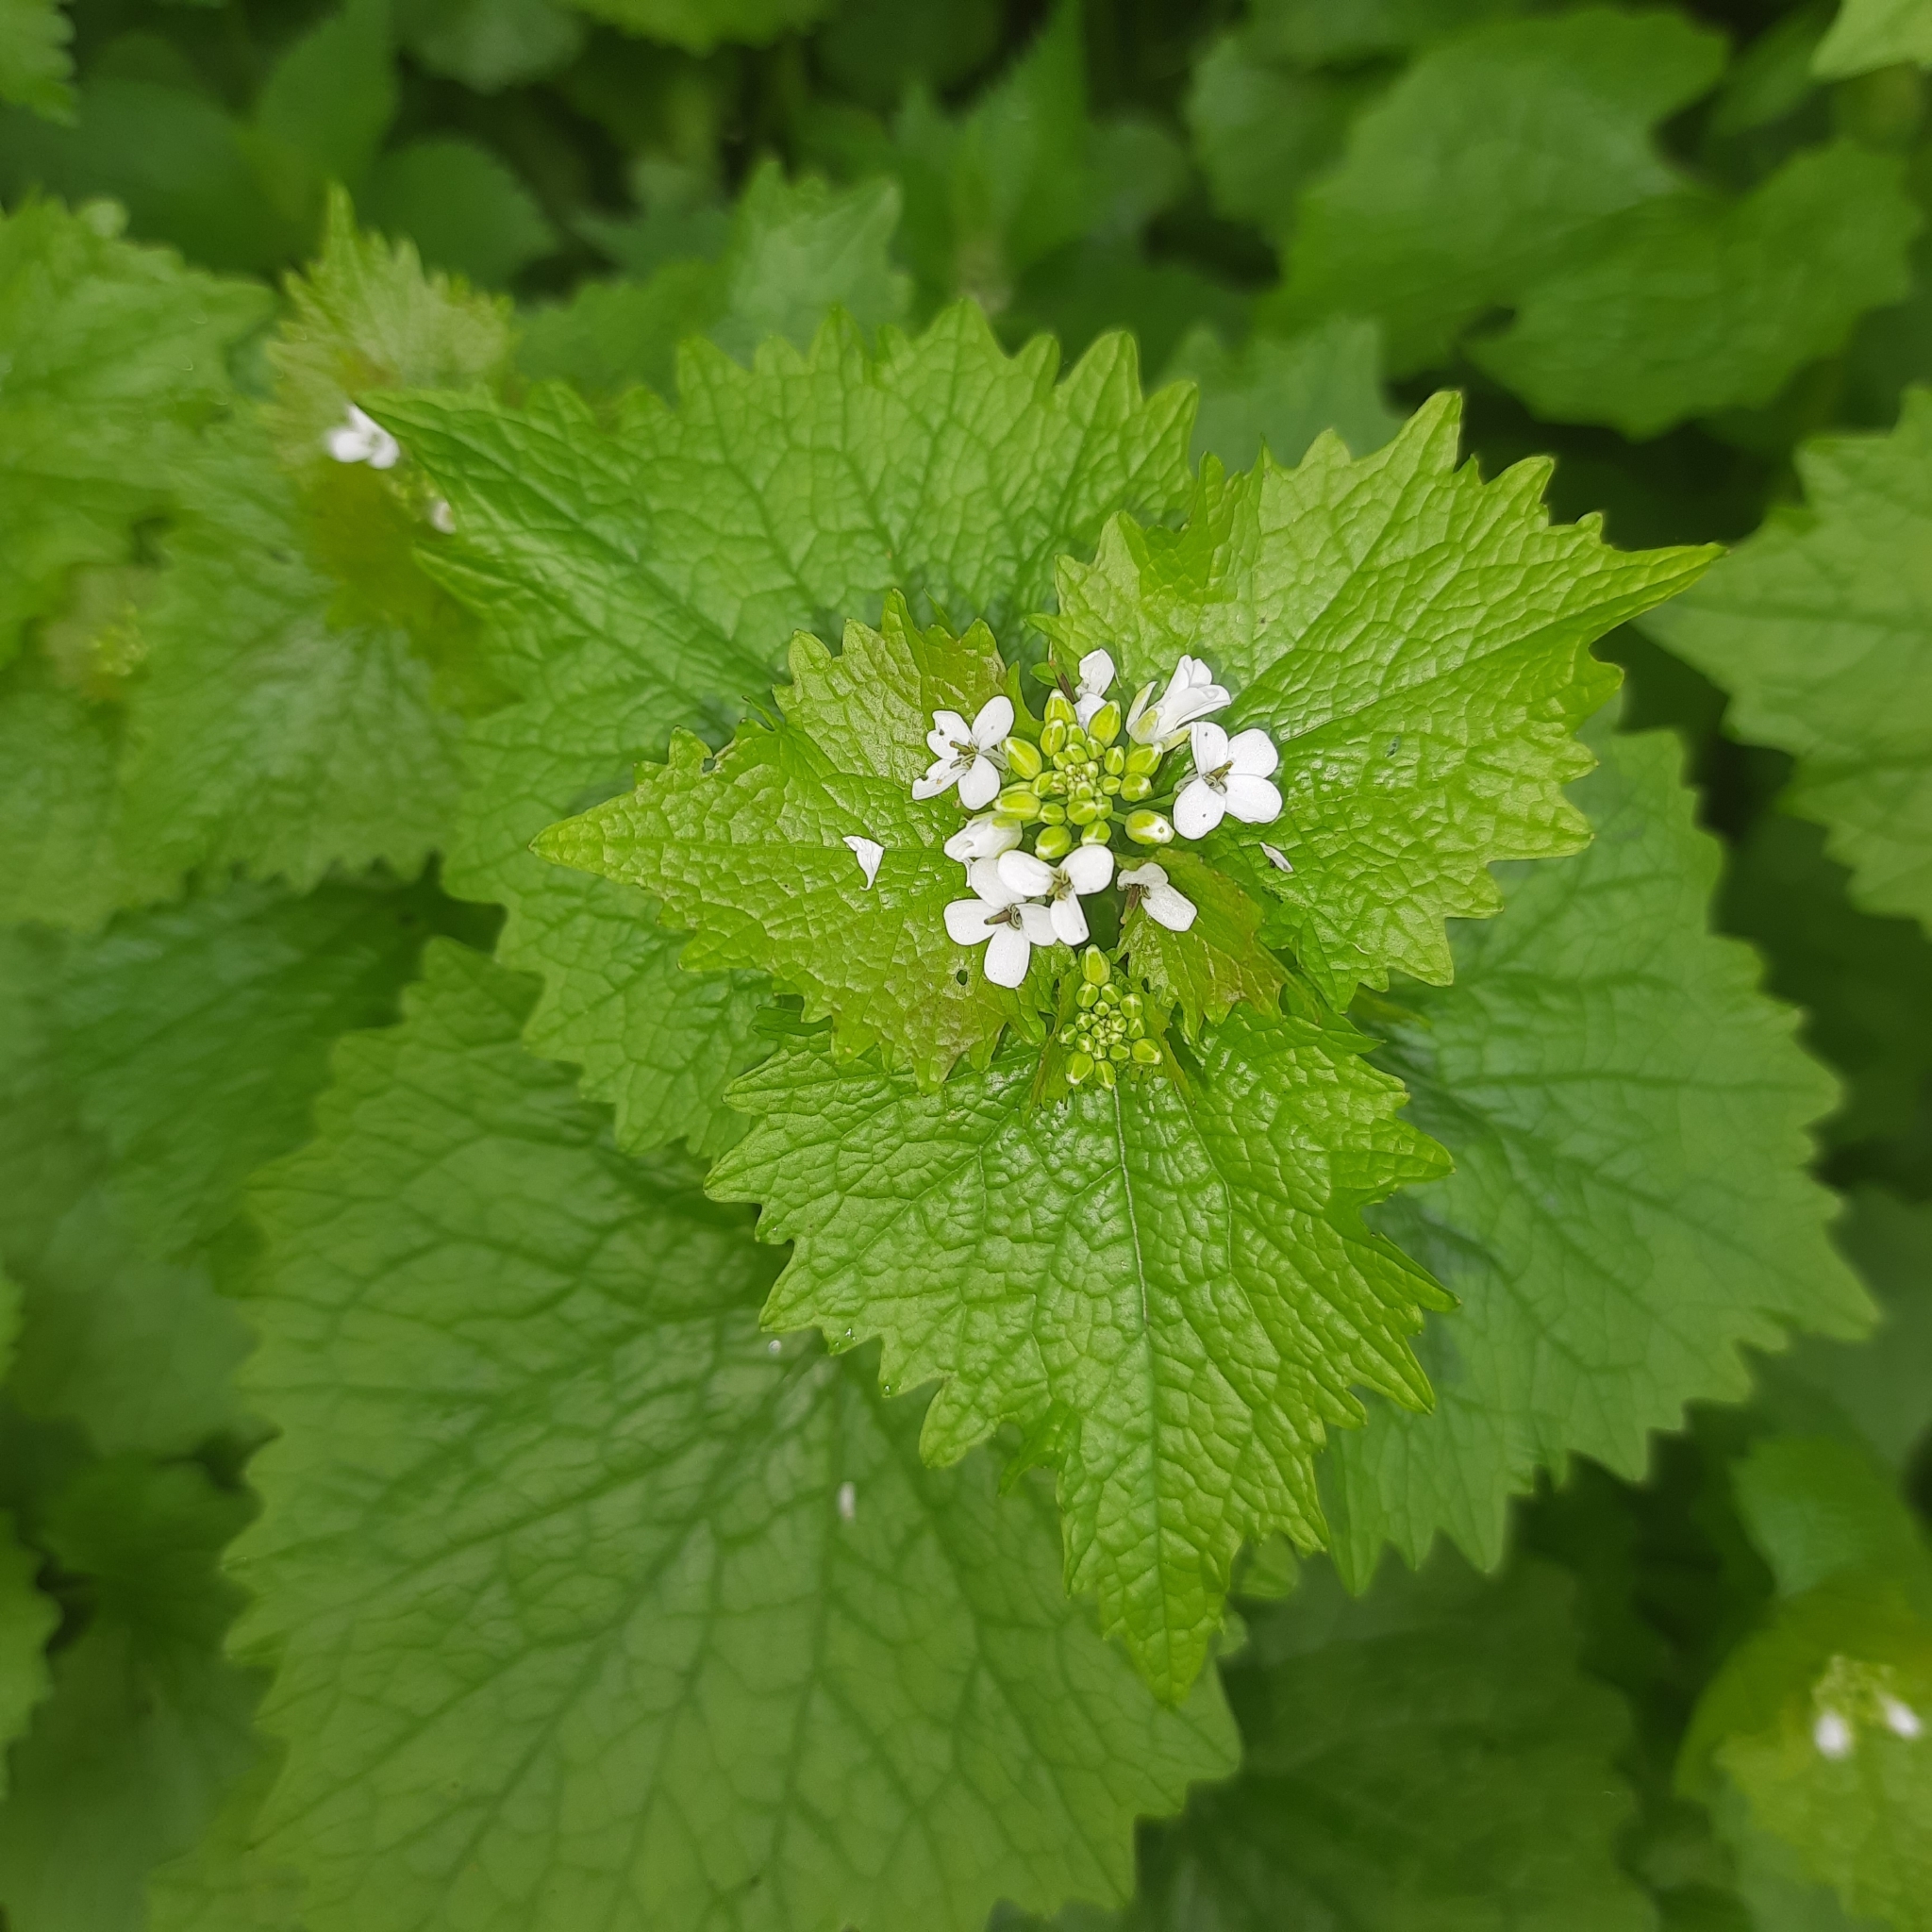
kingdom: Plantae
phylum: Tracheophyta
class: Magnoliopsida
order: Brassicales
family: Brassicaceae
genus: Alliaria
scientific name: Alliaria petiolata
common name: Garlic mustard
